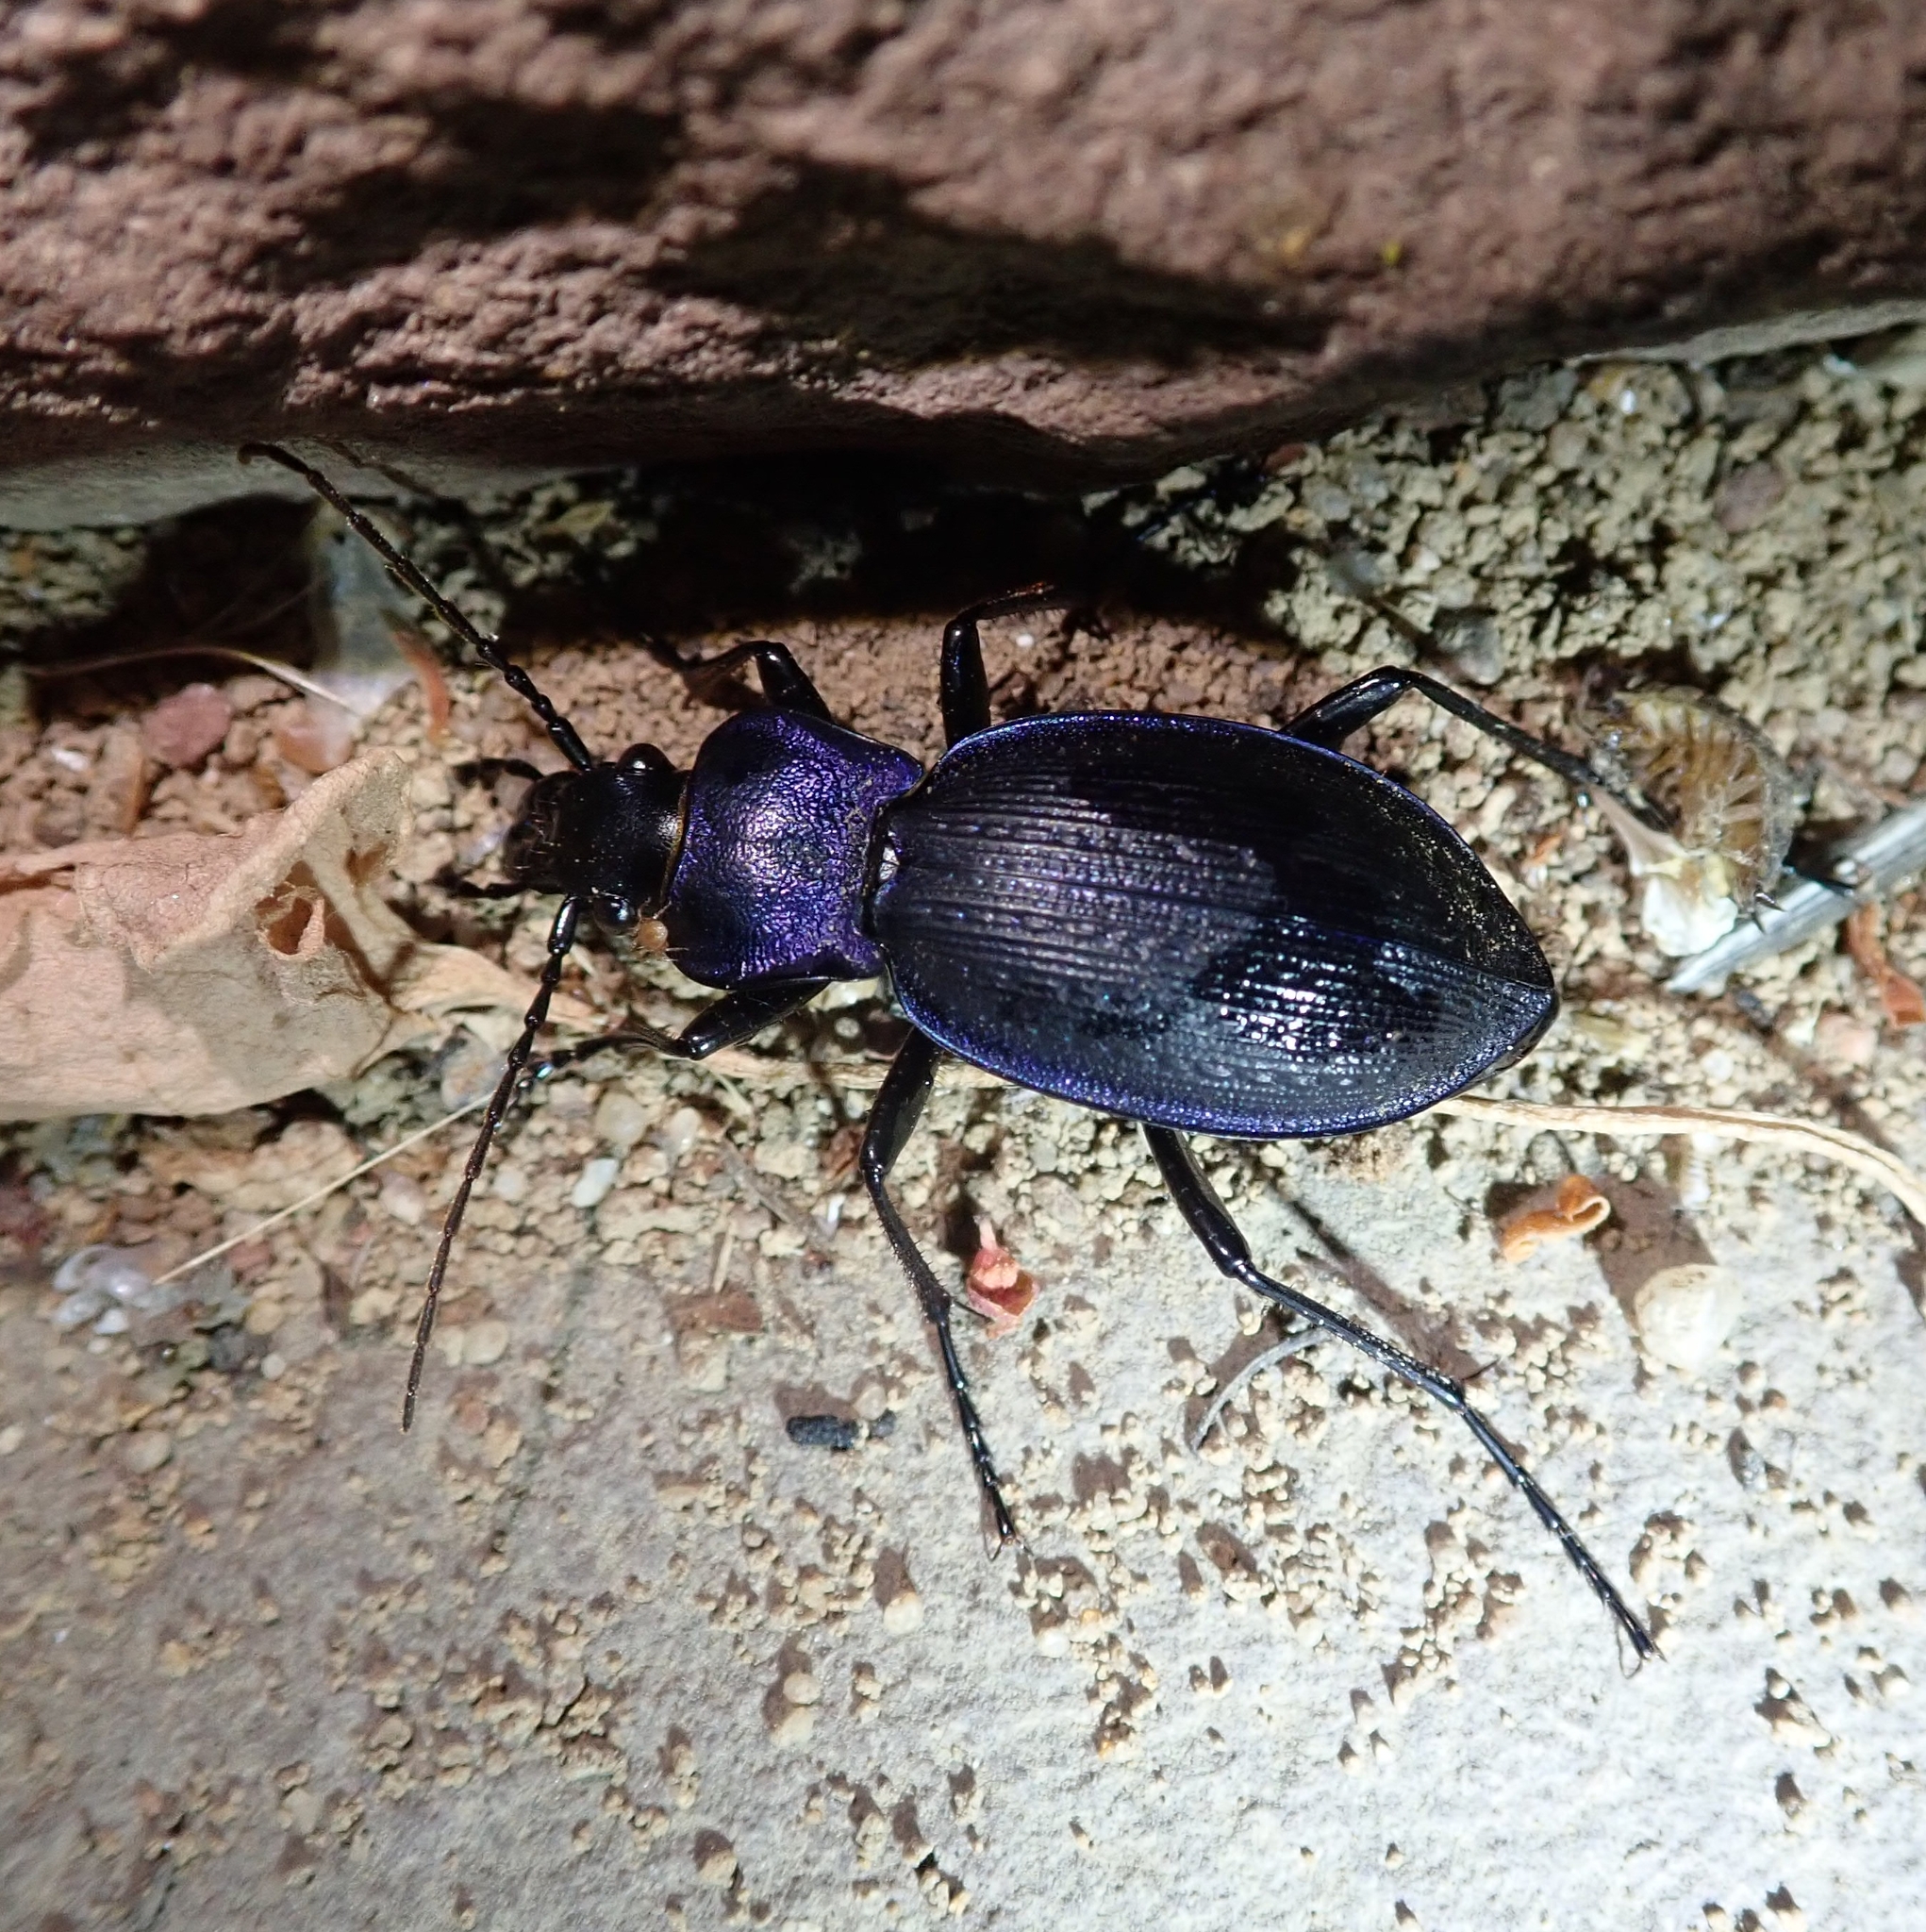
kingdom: Animalia
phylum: Arthropoda
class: Insecta
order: Coleoptera
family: Carabidae
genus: Carabus
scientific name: Carabus problematicus
